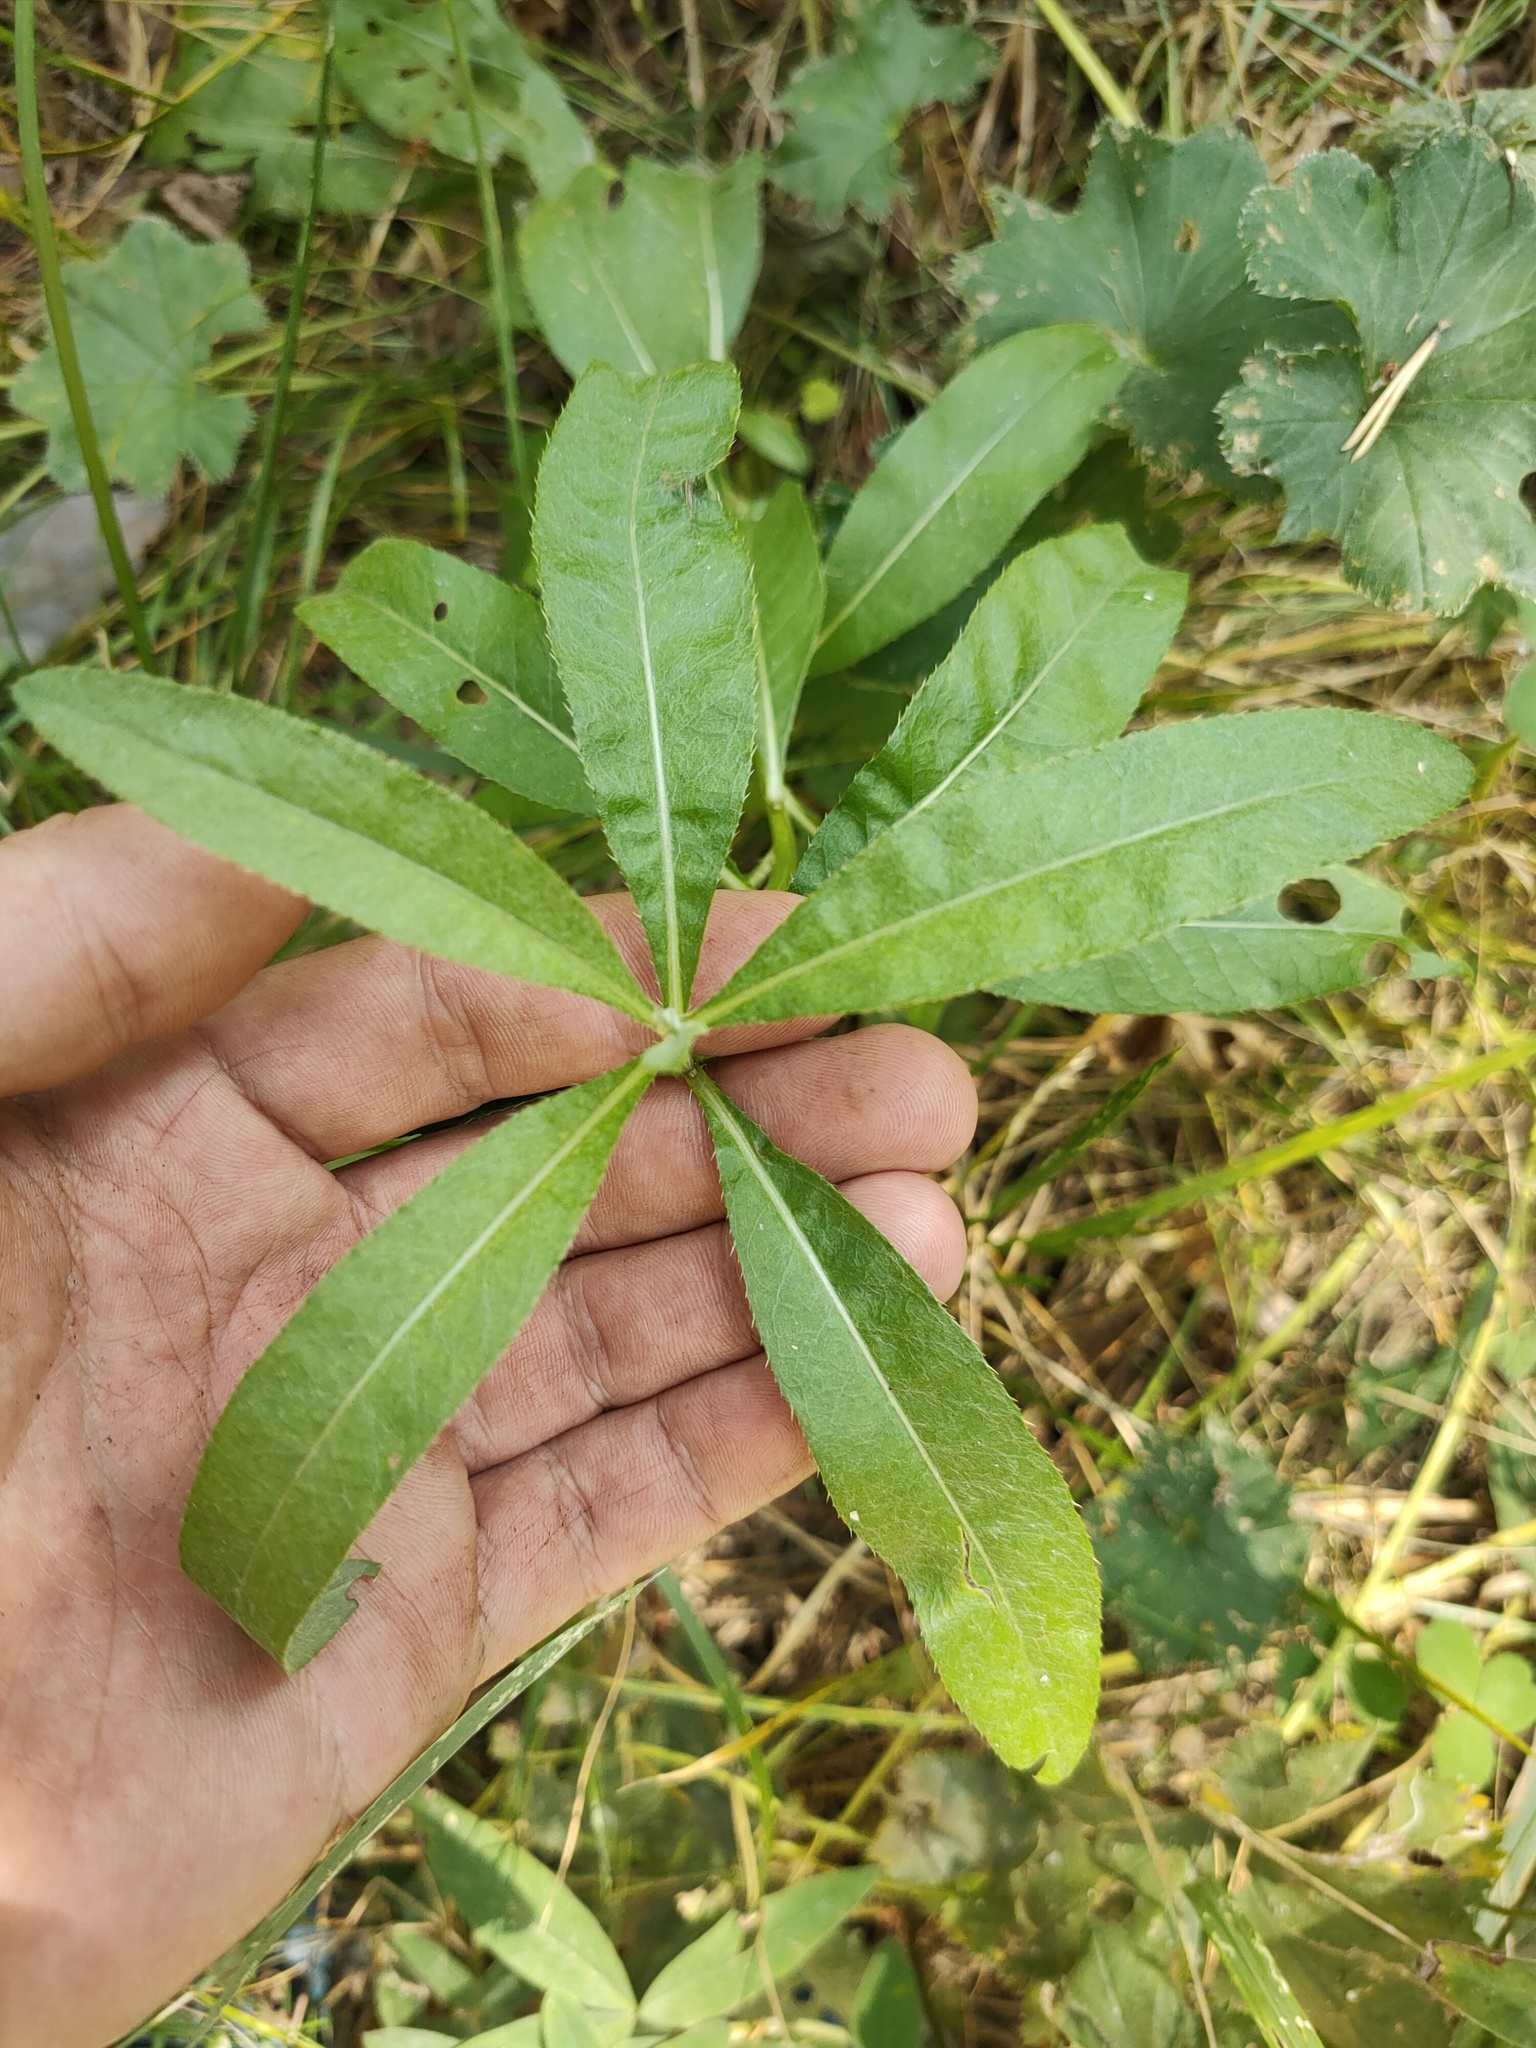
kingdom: Plantae
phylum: Tracheophyta
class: Magnoliopsida
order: Asterales
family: Asteraceae
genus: Cirsium
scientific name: Cirsium arvense
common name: Creeping thistle
